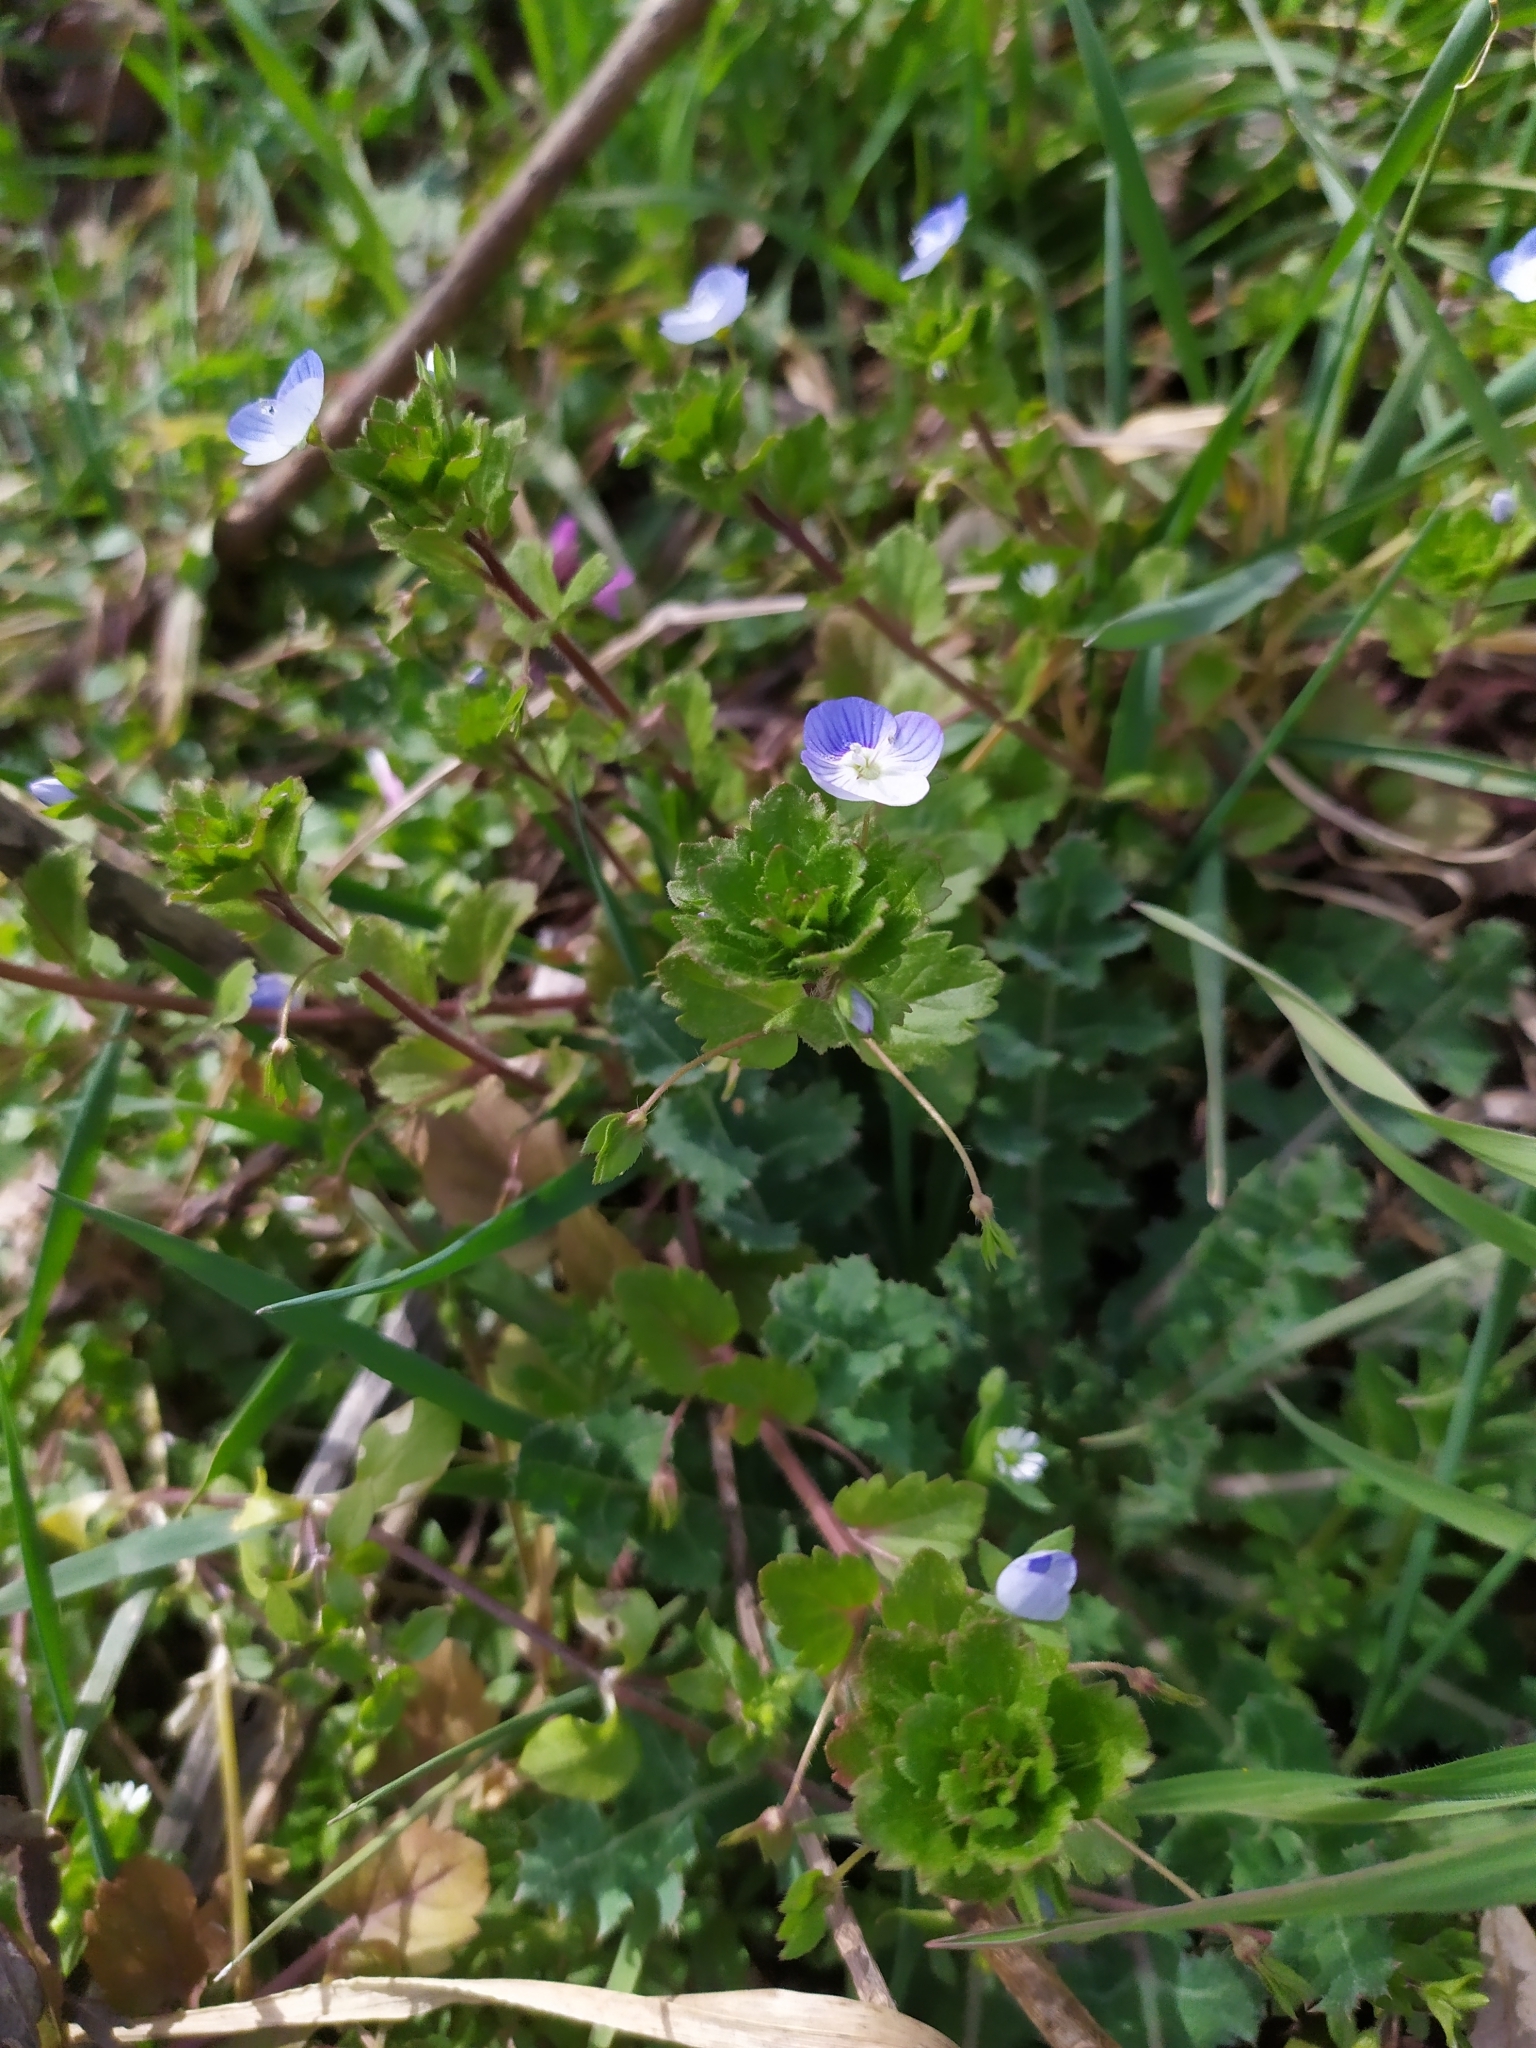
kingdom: Plantae
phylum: Tracheophyta
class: Magnoliopsida
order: Lamiales
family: Plantaginaceae
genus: Veronica
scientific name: Veronica persica
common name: Common field-speedwell
